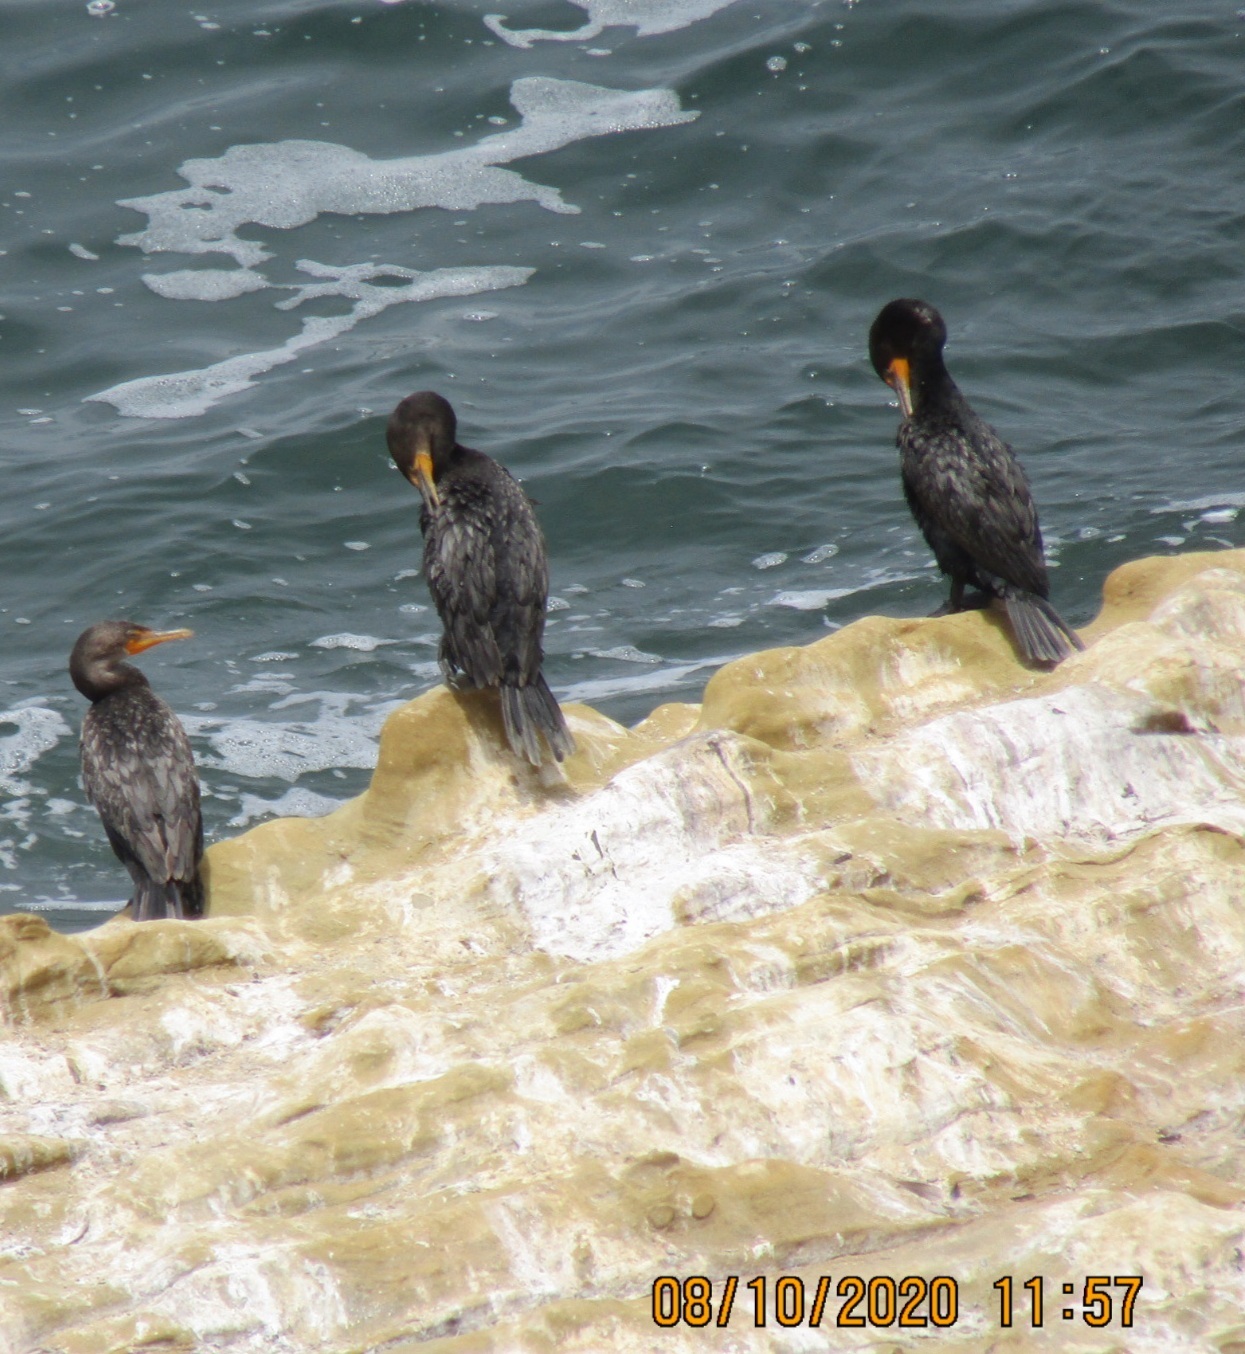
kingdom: Animalia
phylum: Chordata
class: Aves
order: Suliformes
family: Phalacrocoracidae
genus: Phalacrocorax
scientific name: Phalacrocorax auritus
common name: Double-crested cormorant
